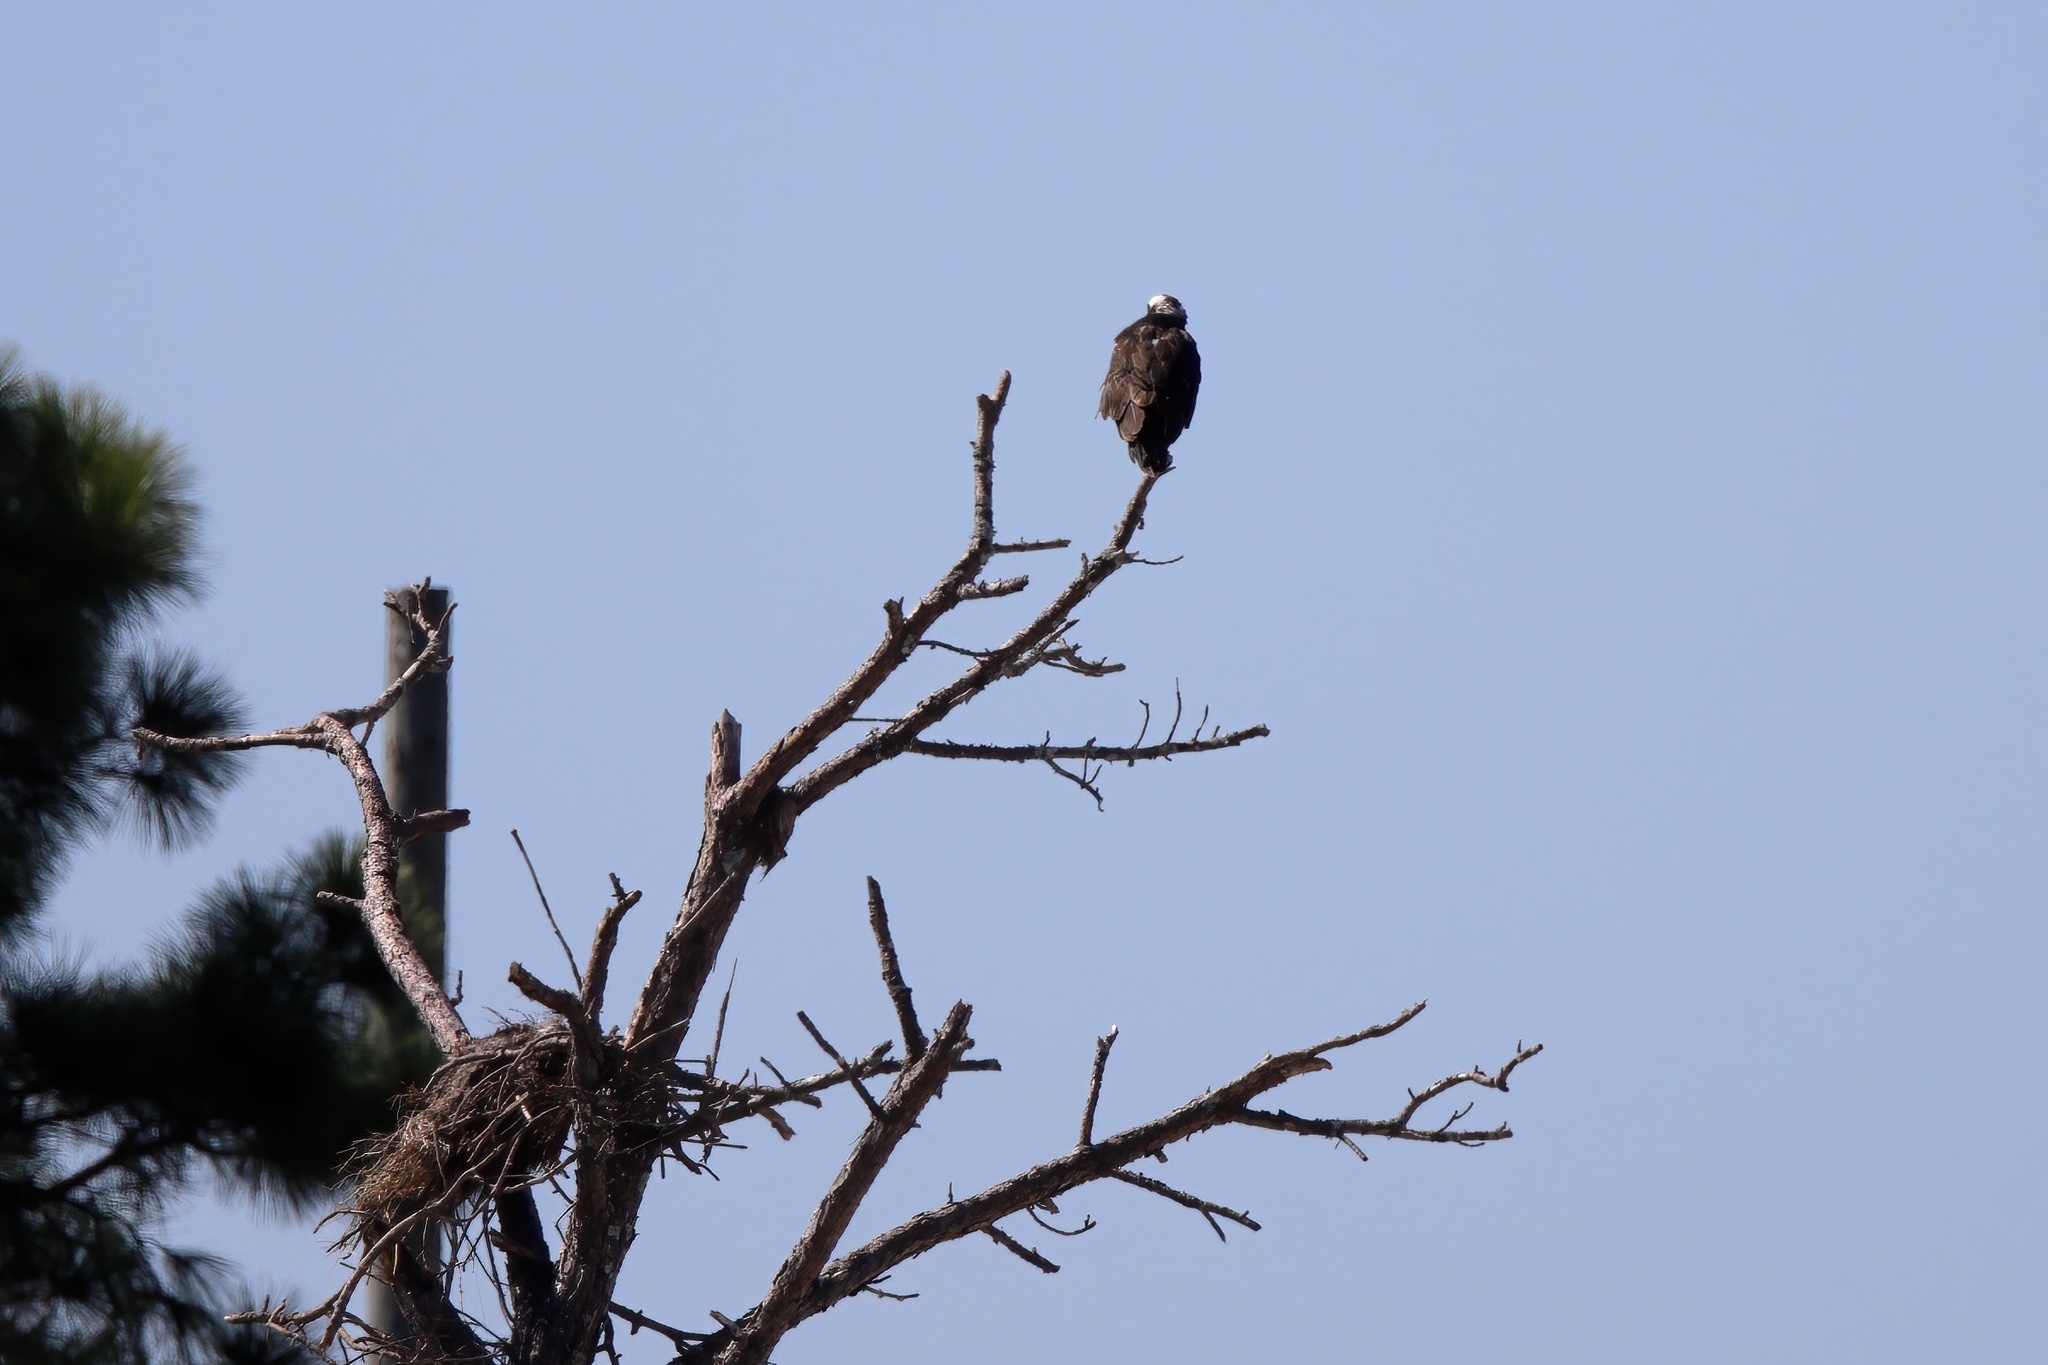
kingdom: Animalia
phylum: Chordata
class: Aves
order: Accipitriformes
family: Pandionidae
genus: Pandion
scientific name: Pandion haliaetus
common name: Osprey
